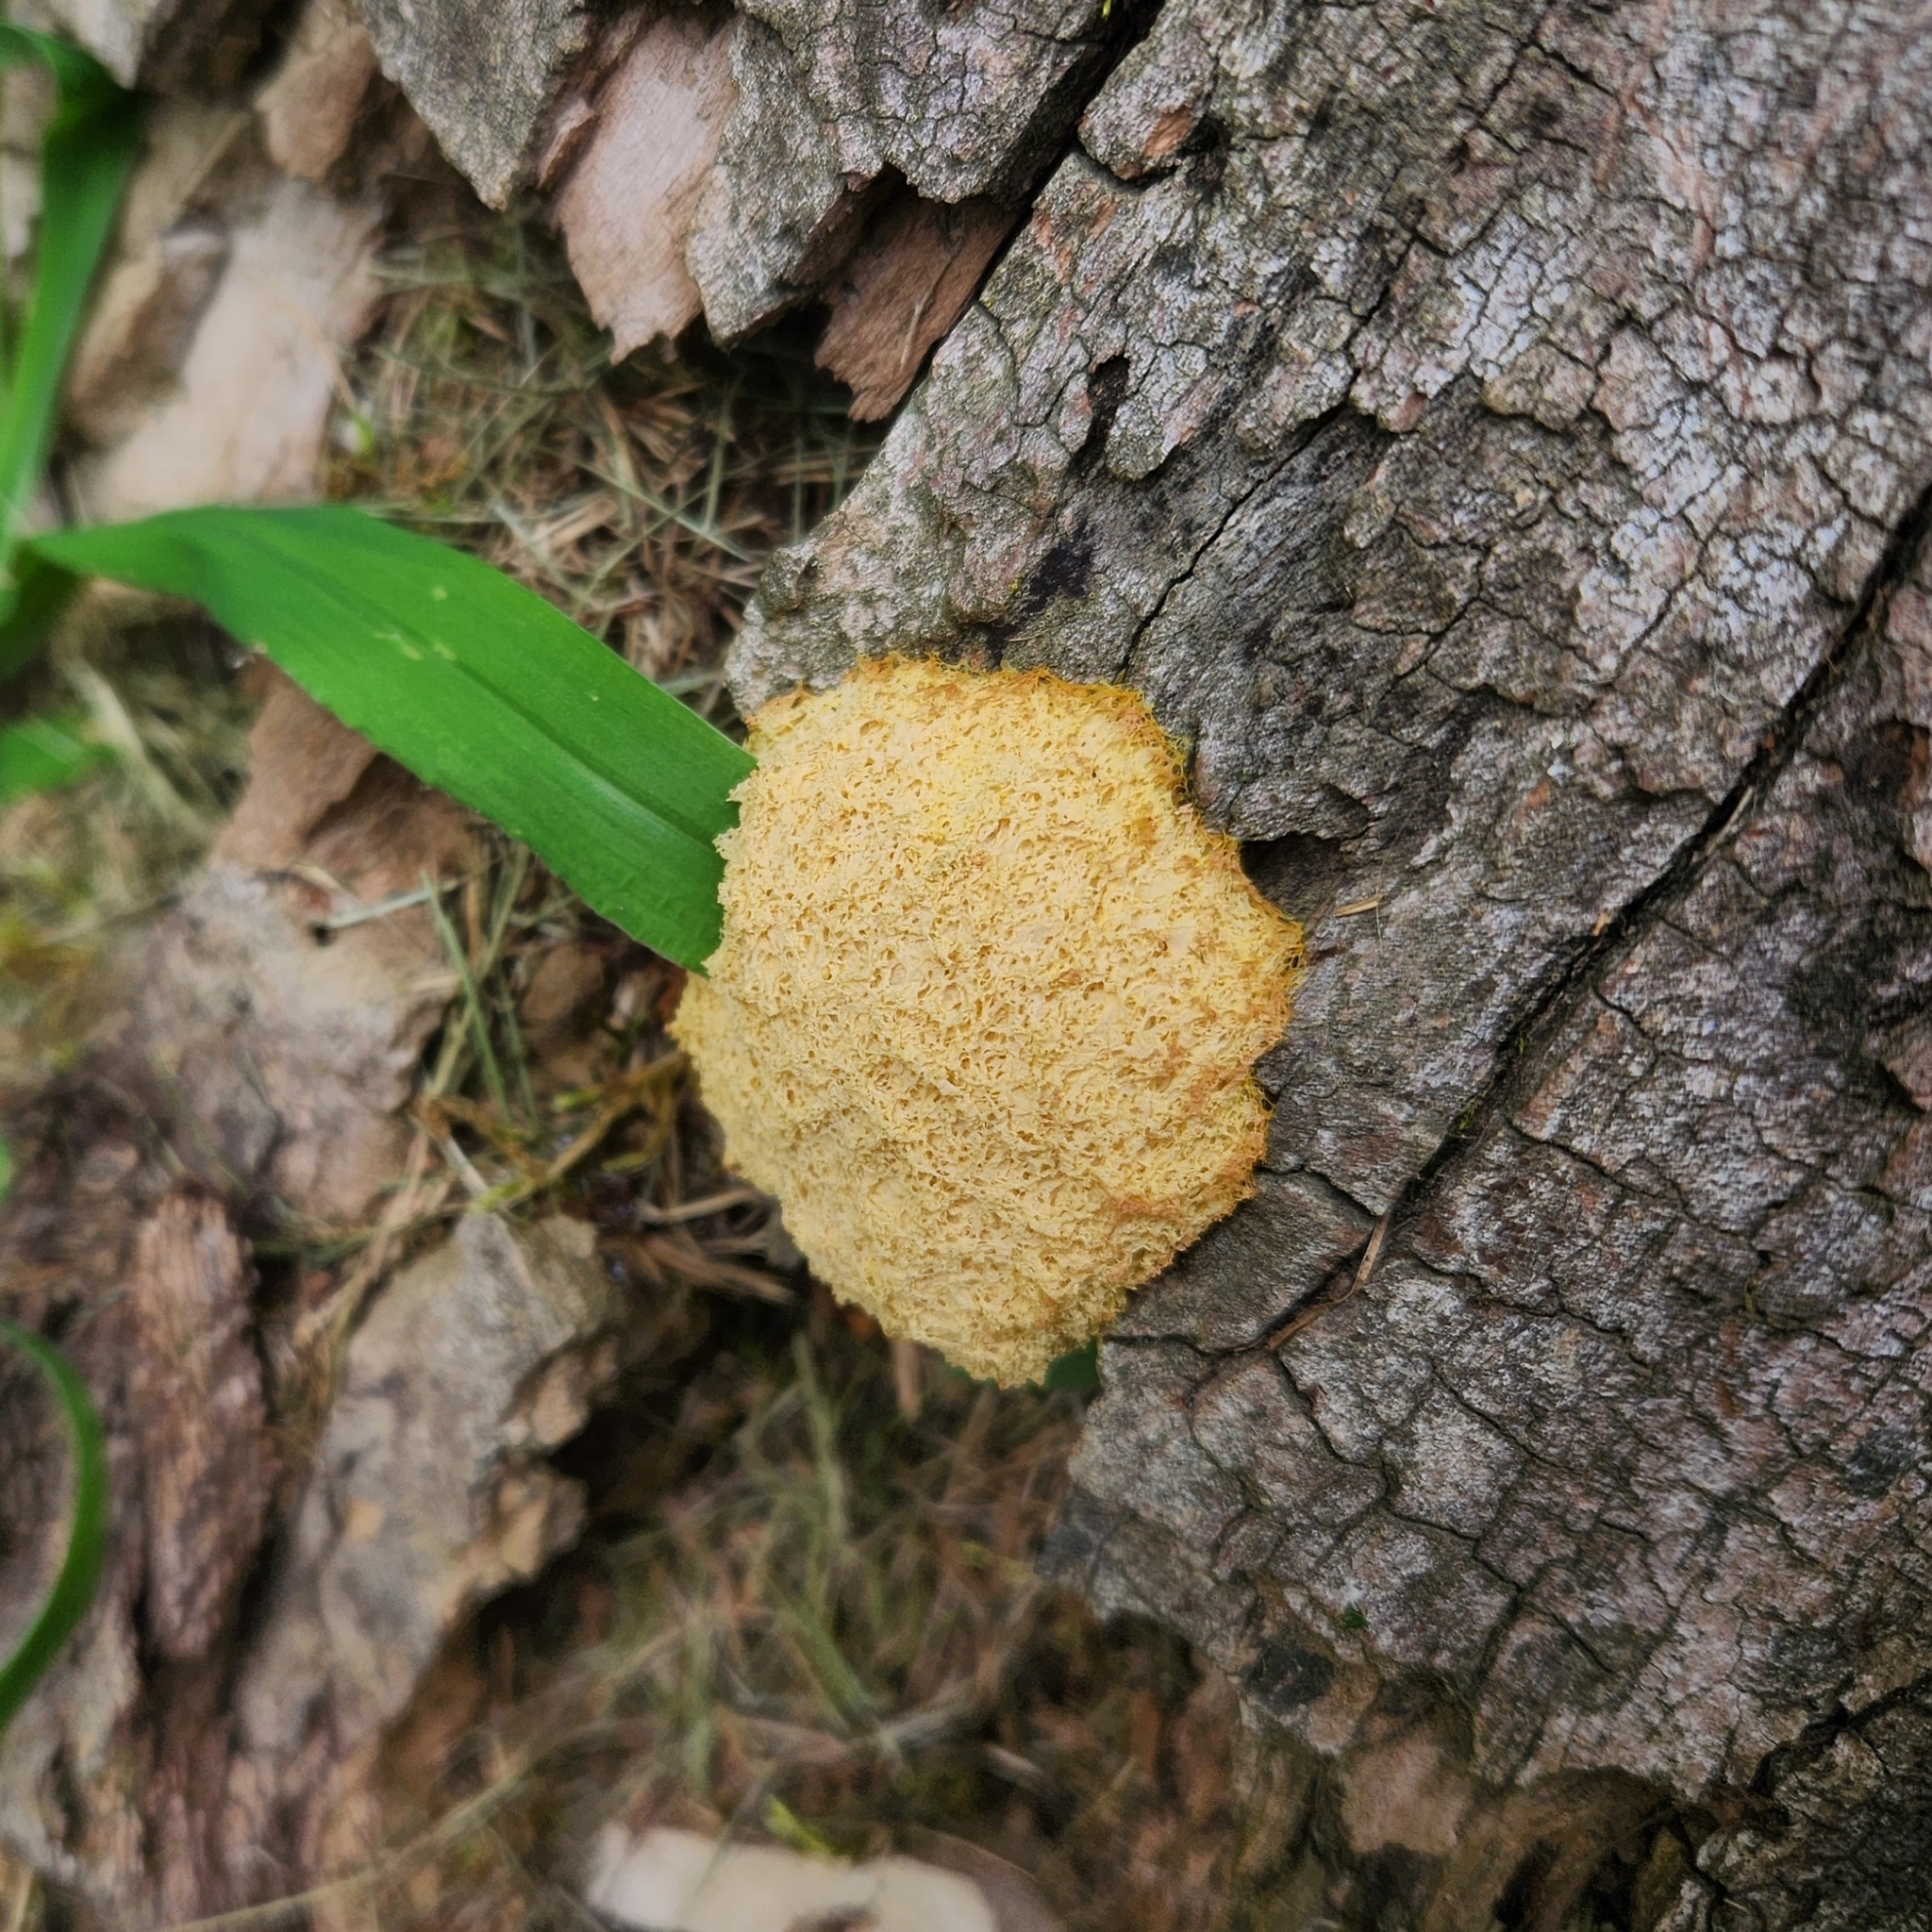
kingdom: Protozoa
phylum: Mycetozoa
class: Myxomycetes
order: Physarales
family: Physaraceae
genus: Fuligo
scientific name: Fuligo septica
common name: Dog vomit slime mold
